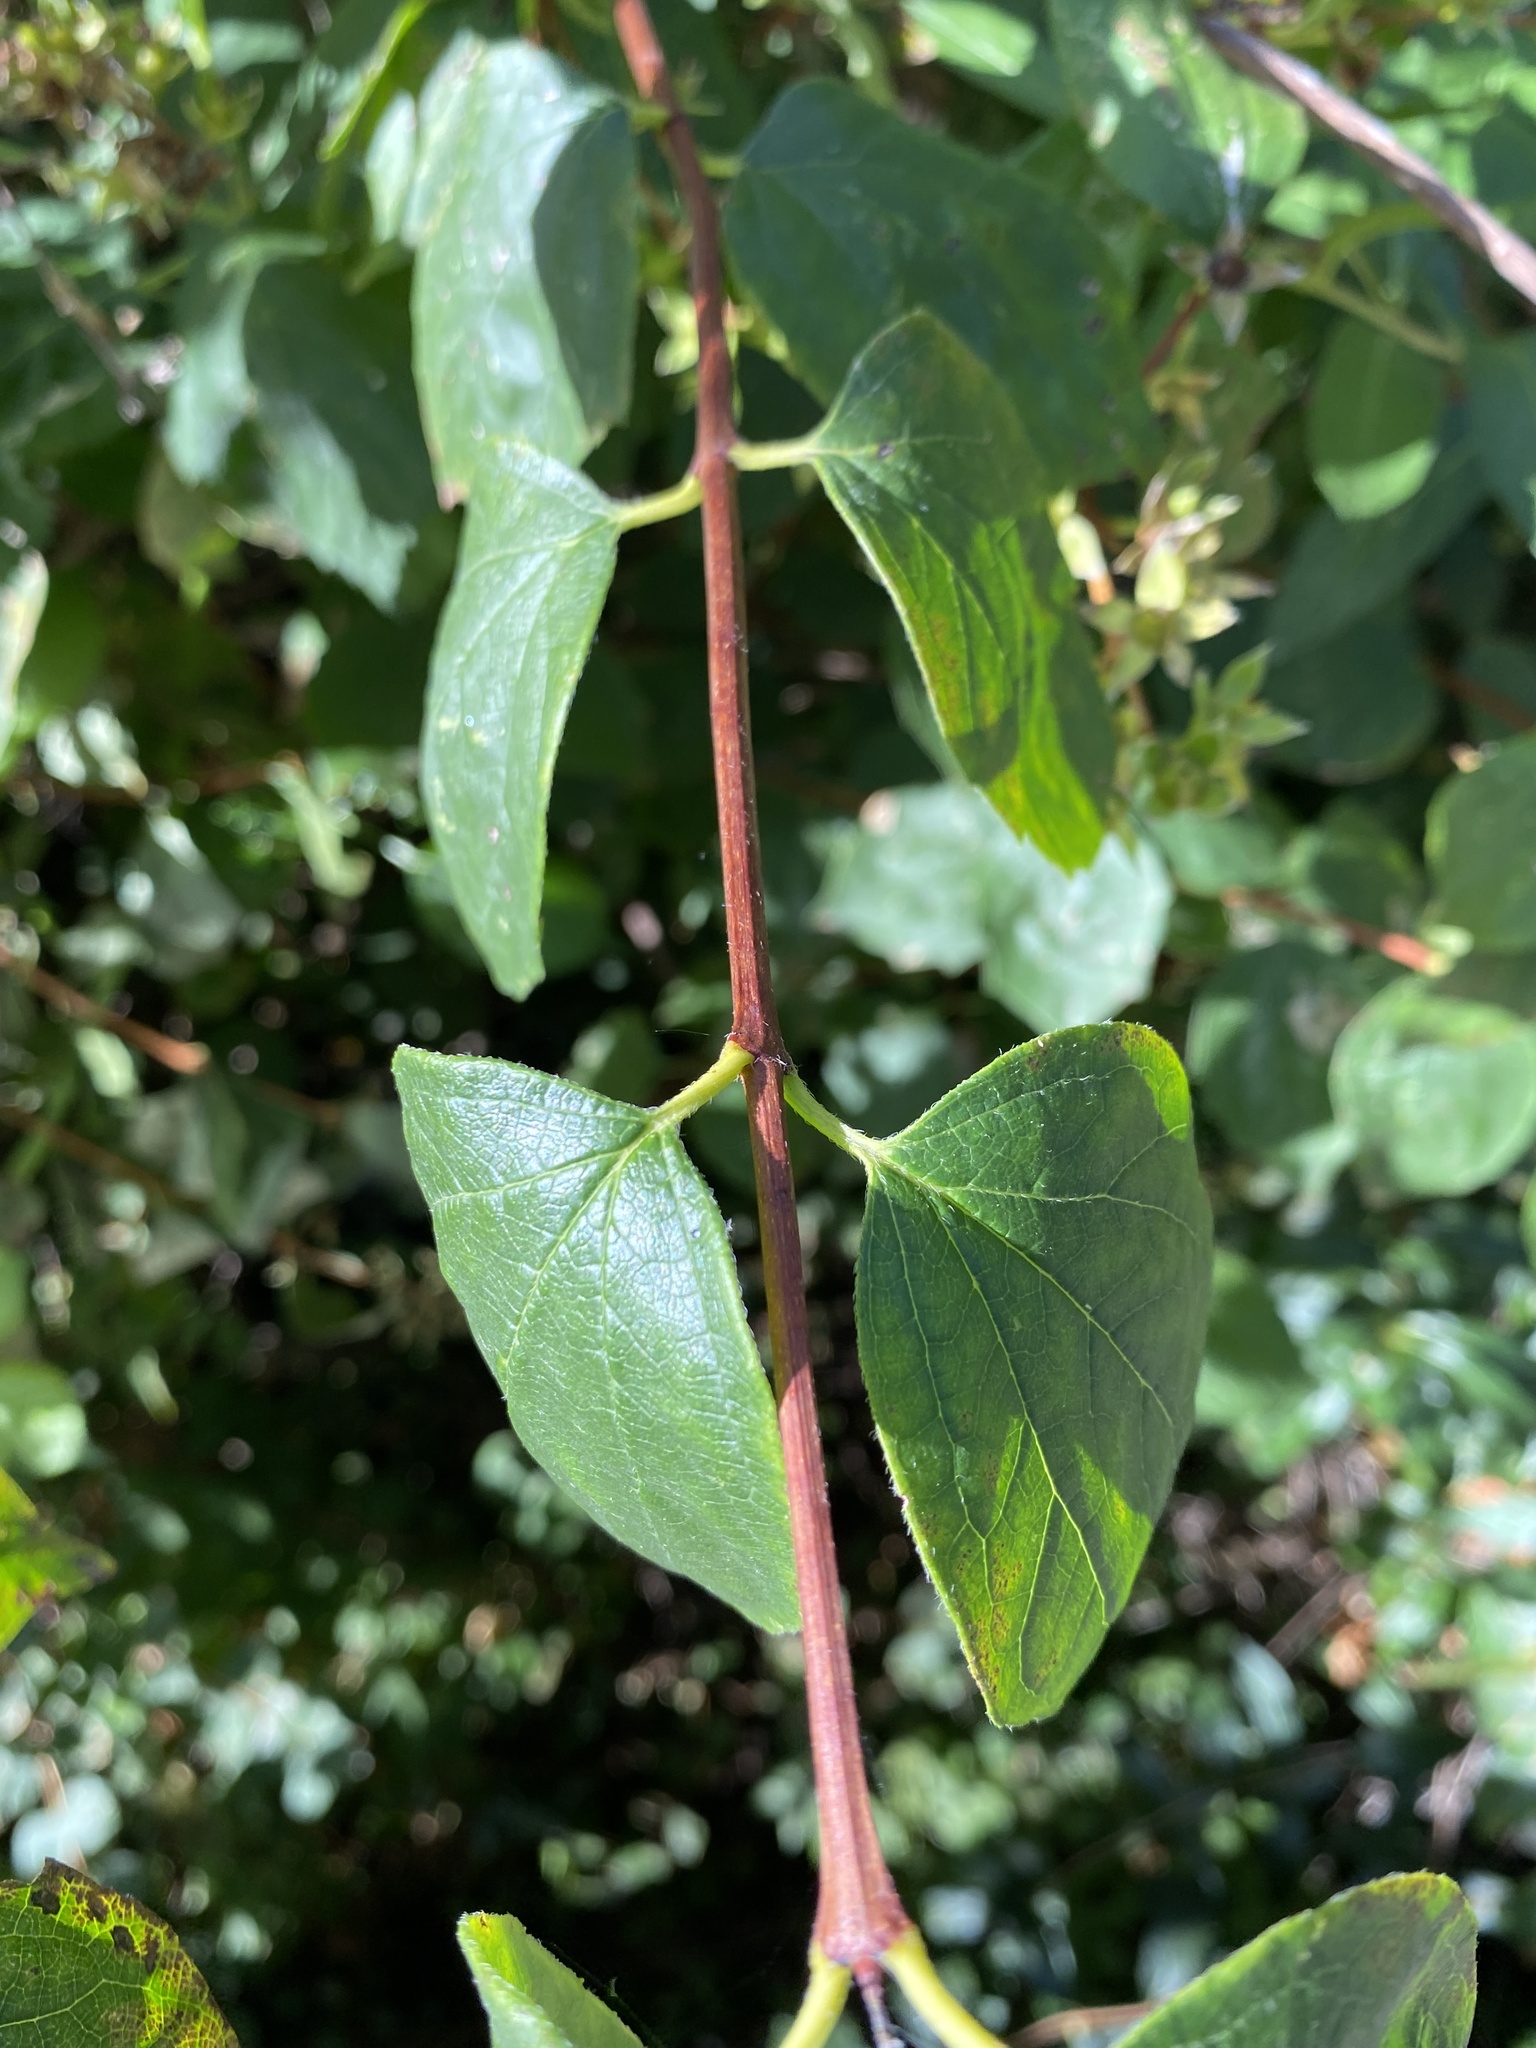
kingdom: Plantae
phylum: Tracheophyta
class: Magnoliopsida
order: Cornales
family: Hydrangeaceae
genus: Philadelphus
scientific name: Philadelphus lewisii
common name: Lewis's mock orange
